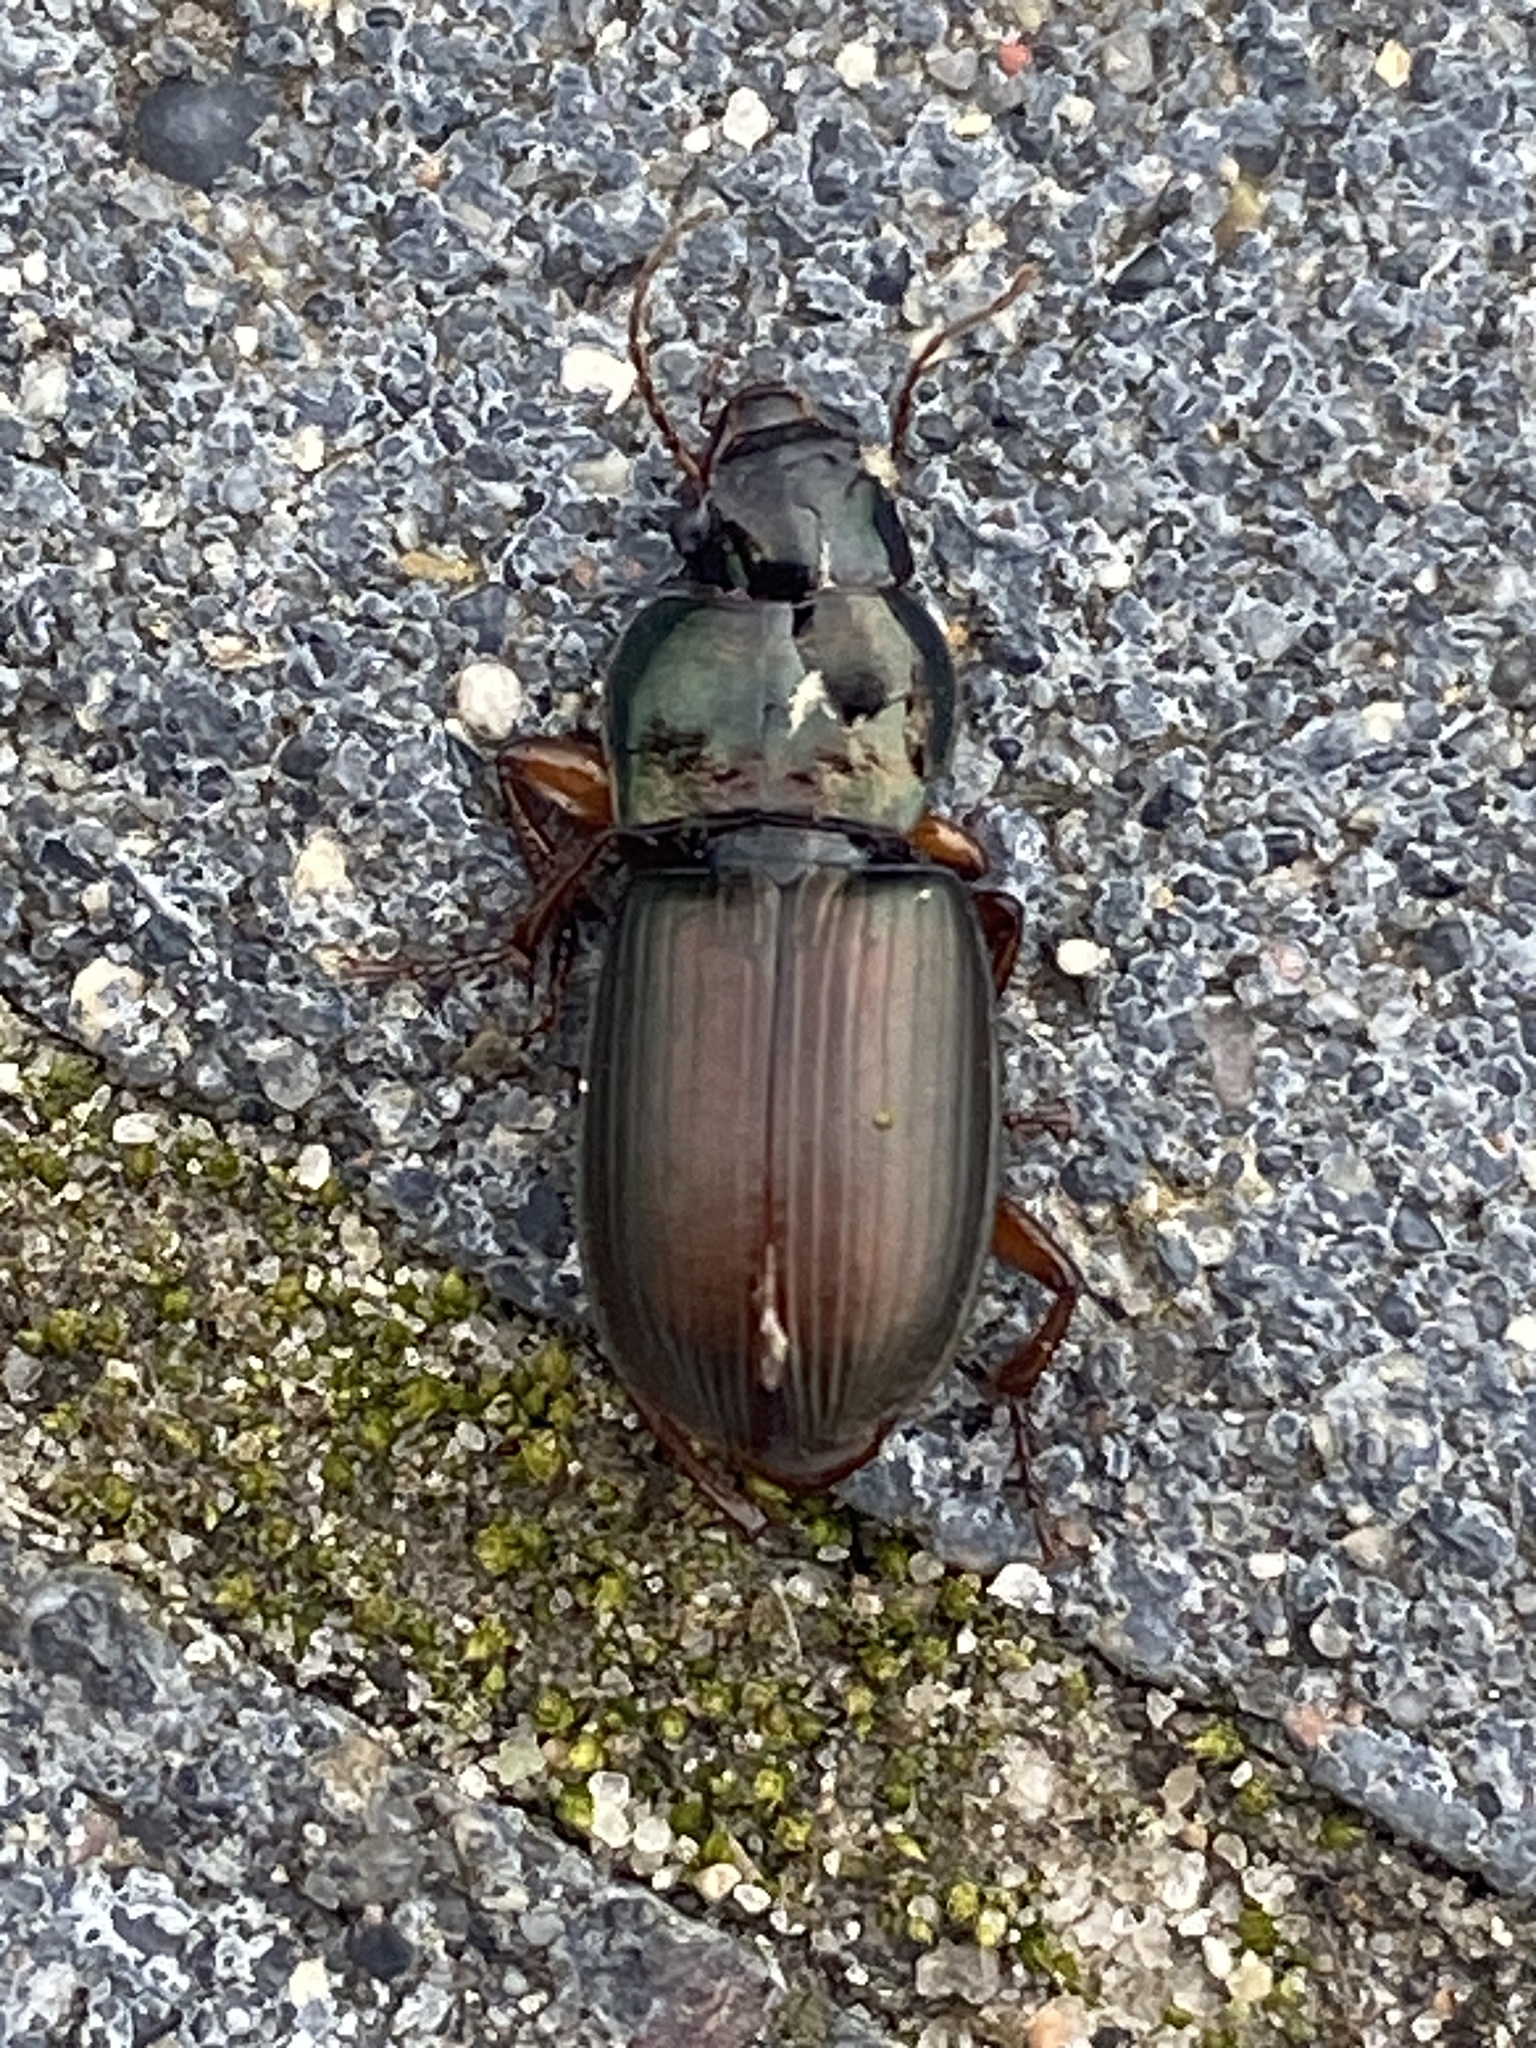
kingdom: Animalia
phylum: Arthropoda
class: Insecta
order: Coleoptera
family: Carabidae
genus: Harpalus
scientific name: Harpalus affinis
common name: Polychrome harp ground beetle
